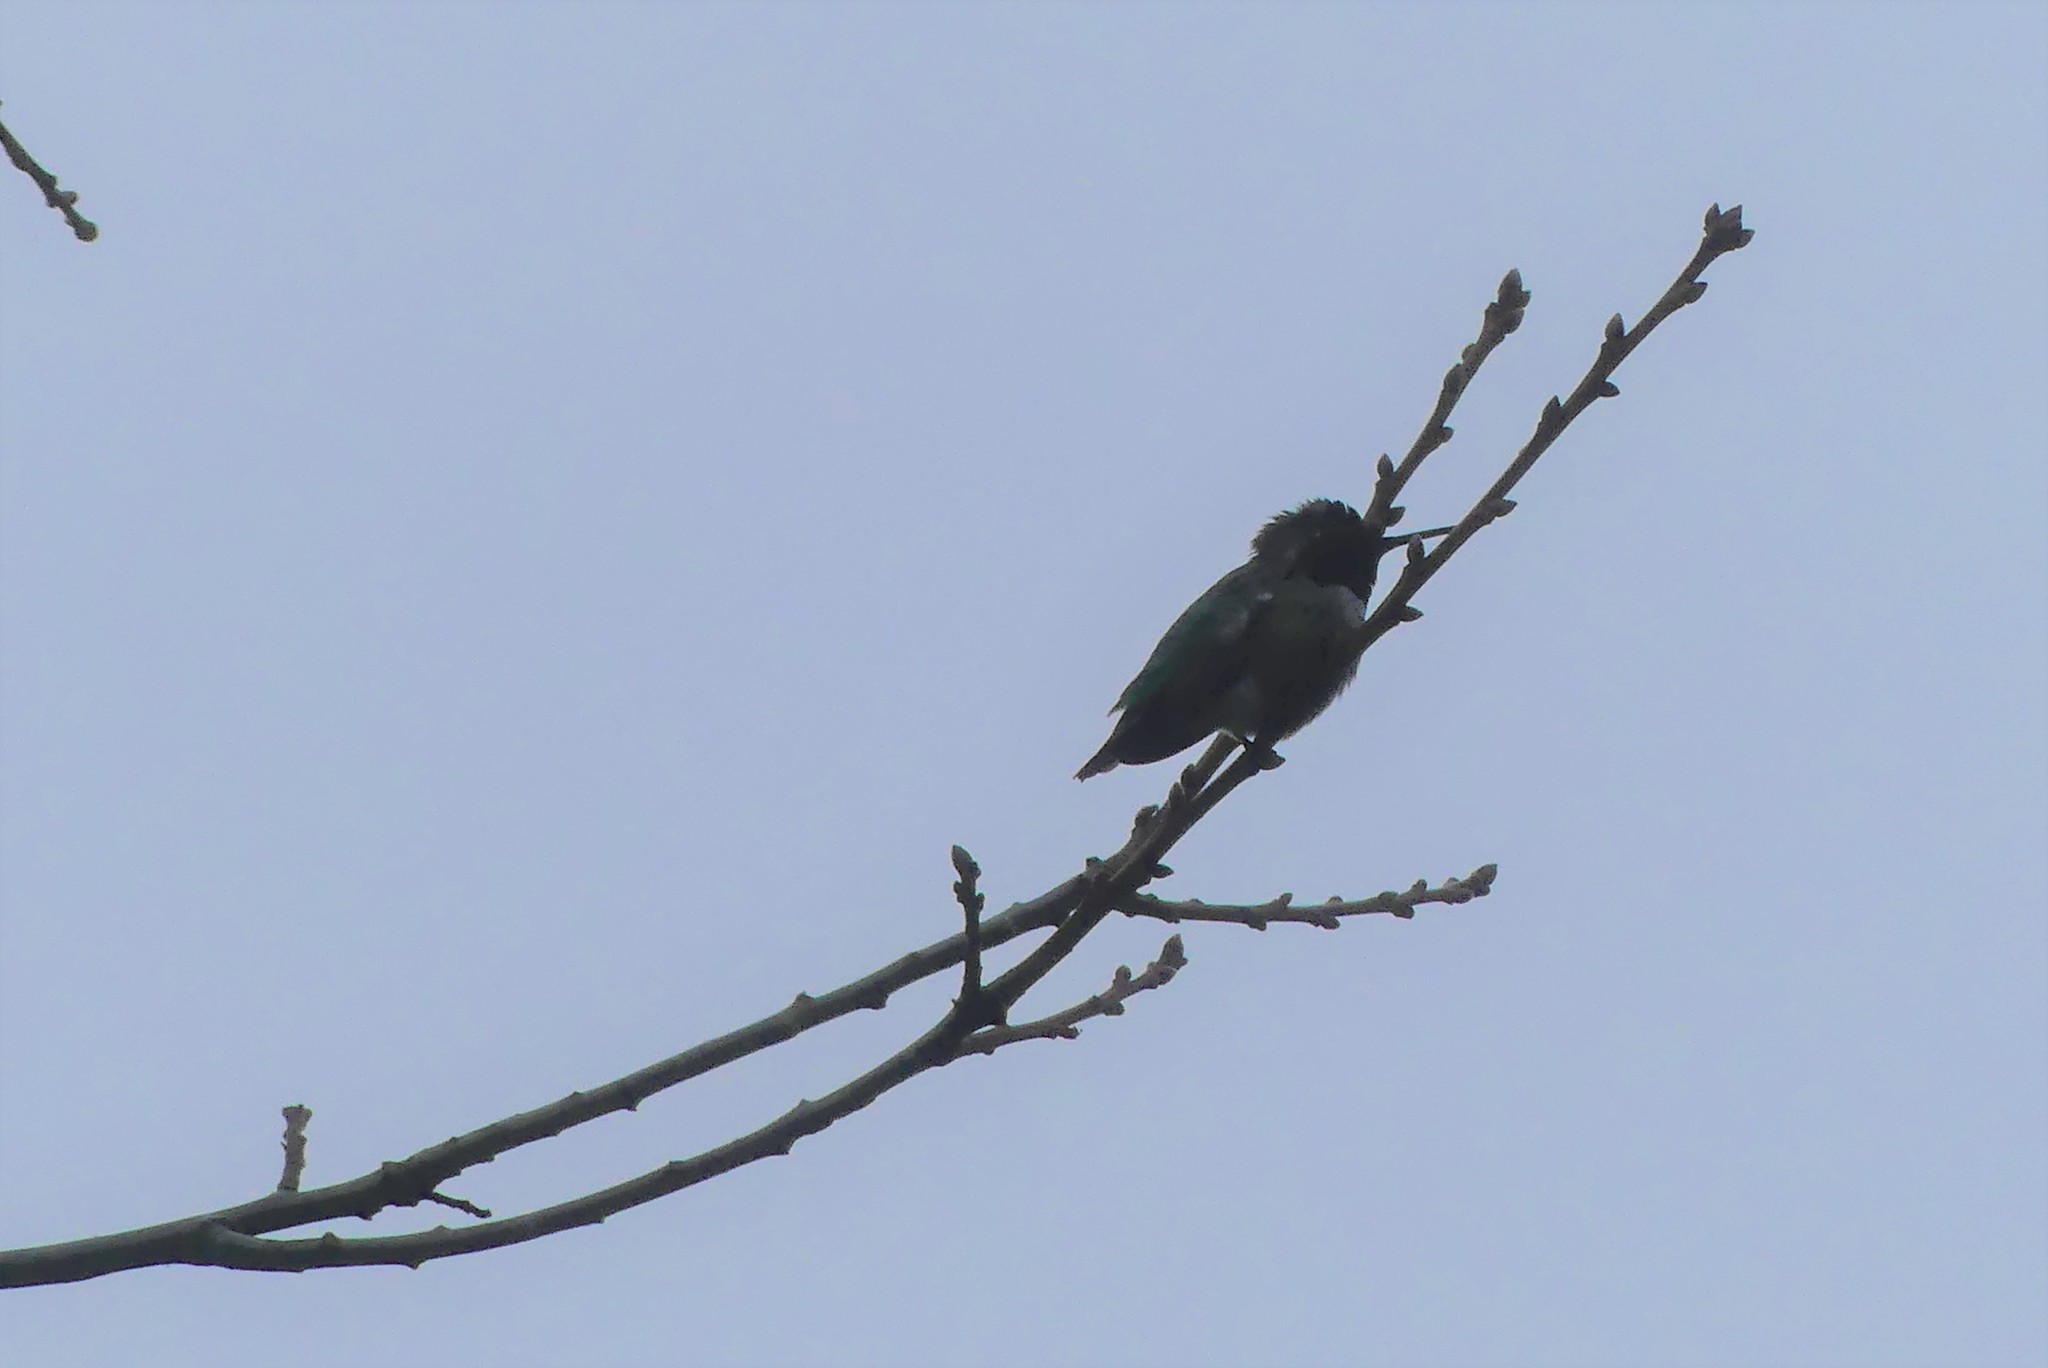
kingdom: Animalia
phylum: Chordata
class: Aves
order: Apodiformes
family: Trochilidae
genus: Calypte
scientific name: Calypte anna
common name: Anna's hummingbird
